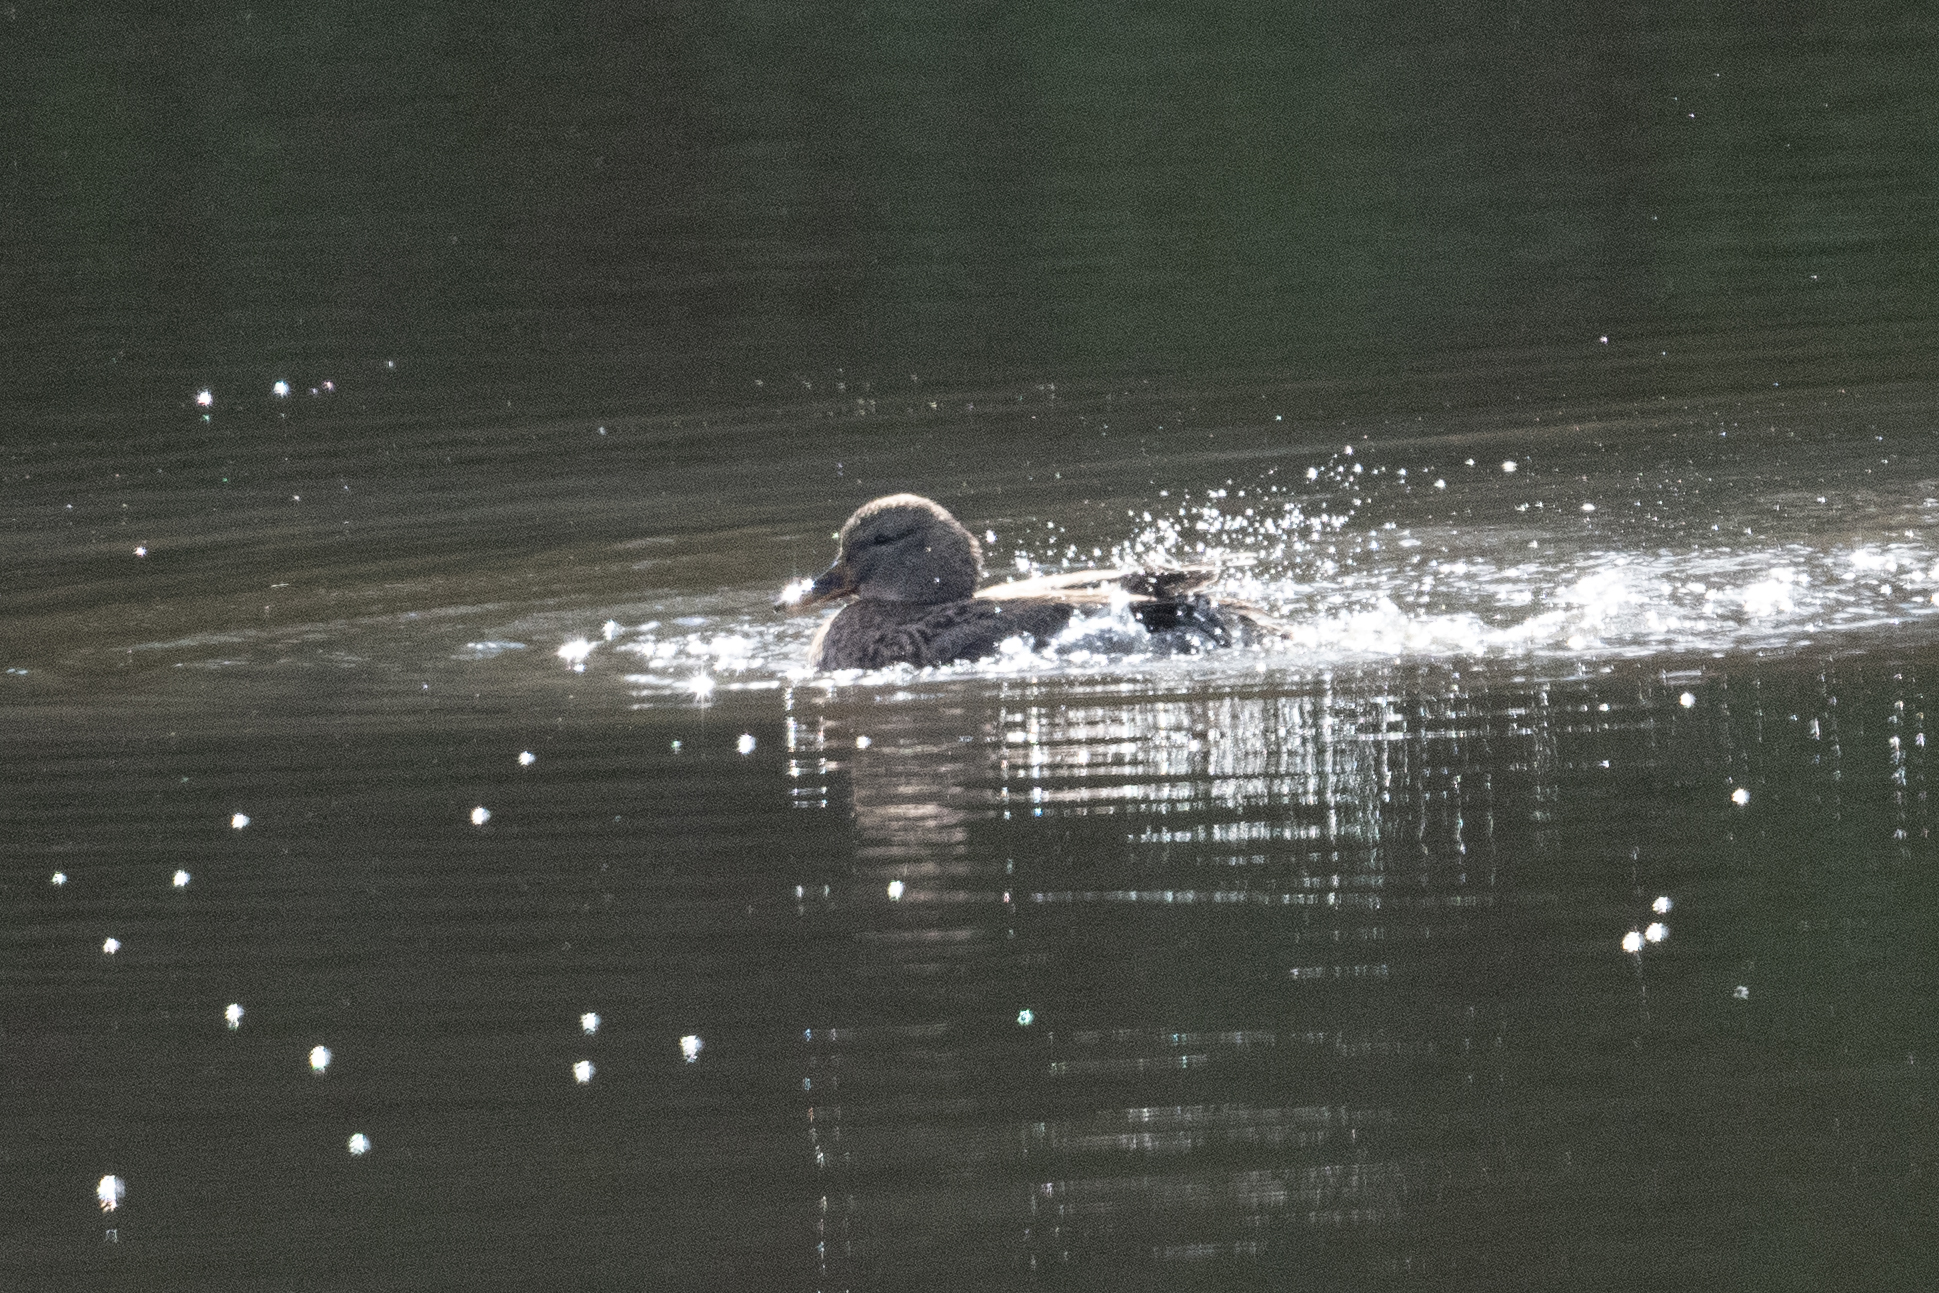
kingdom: Animalia
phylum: Chordata
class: Aves
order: Anseriformes
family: Anatidae
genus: Anas
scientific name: Anas platyrhynchos
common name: Mallard
